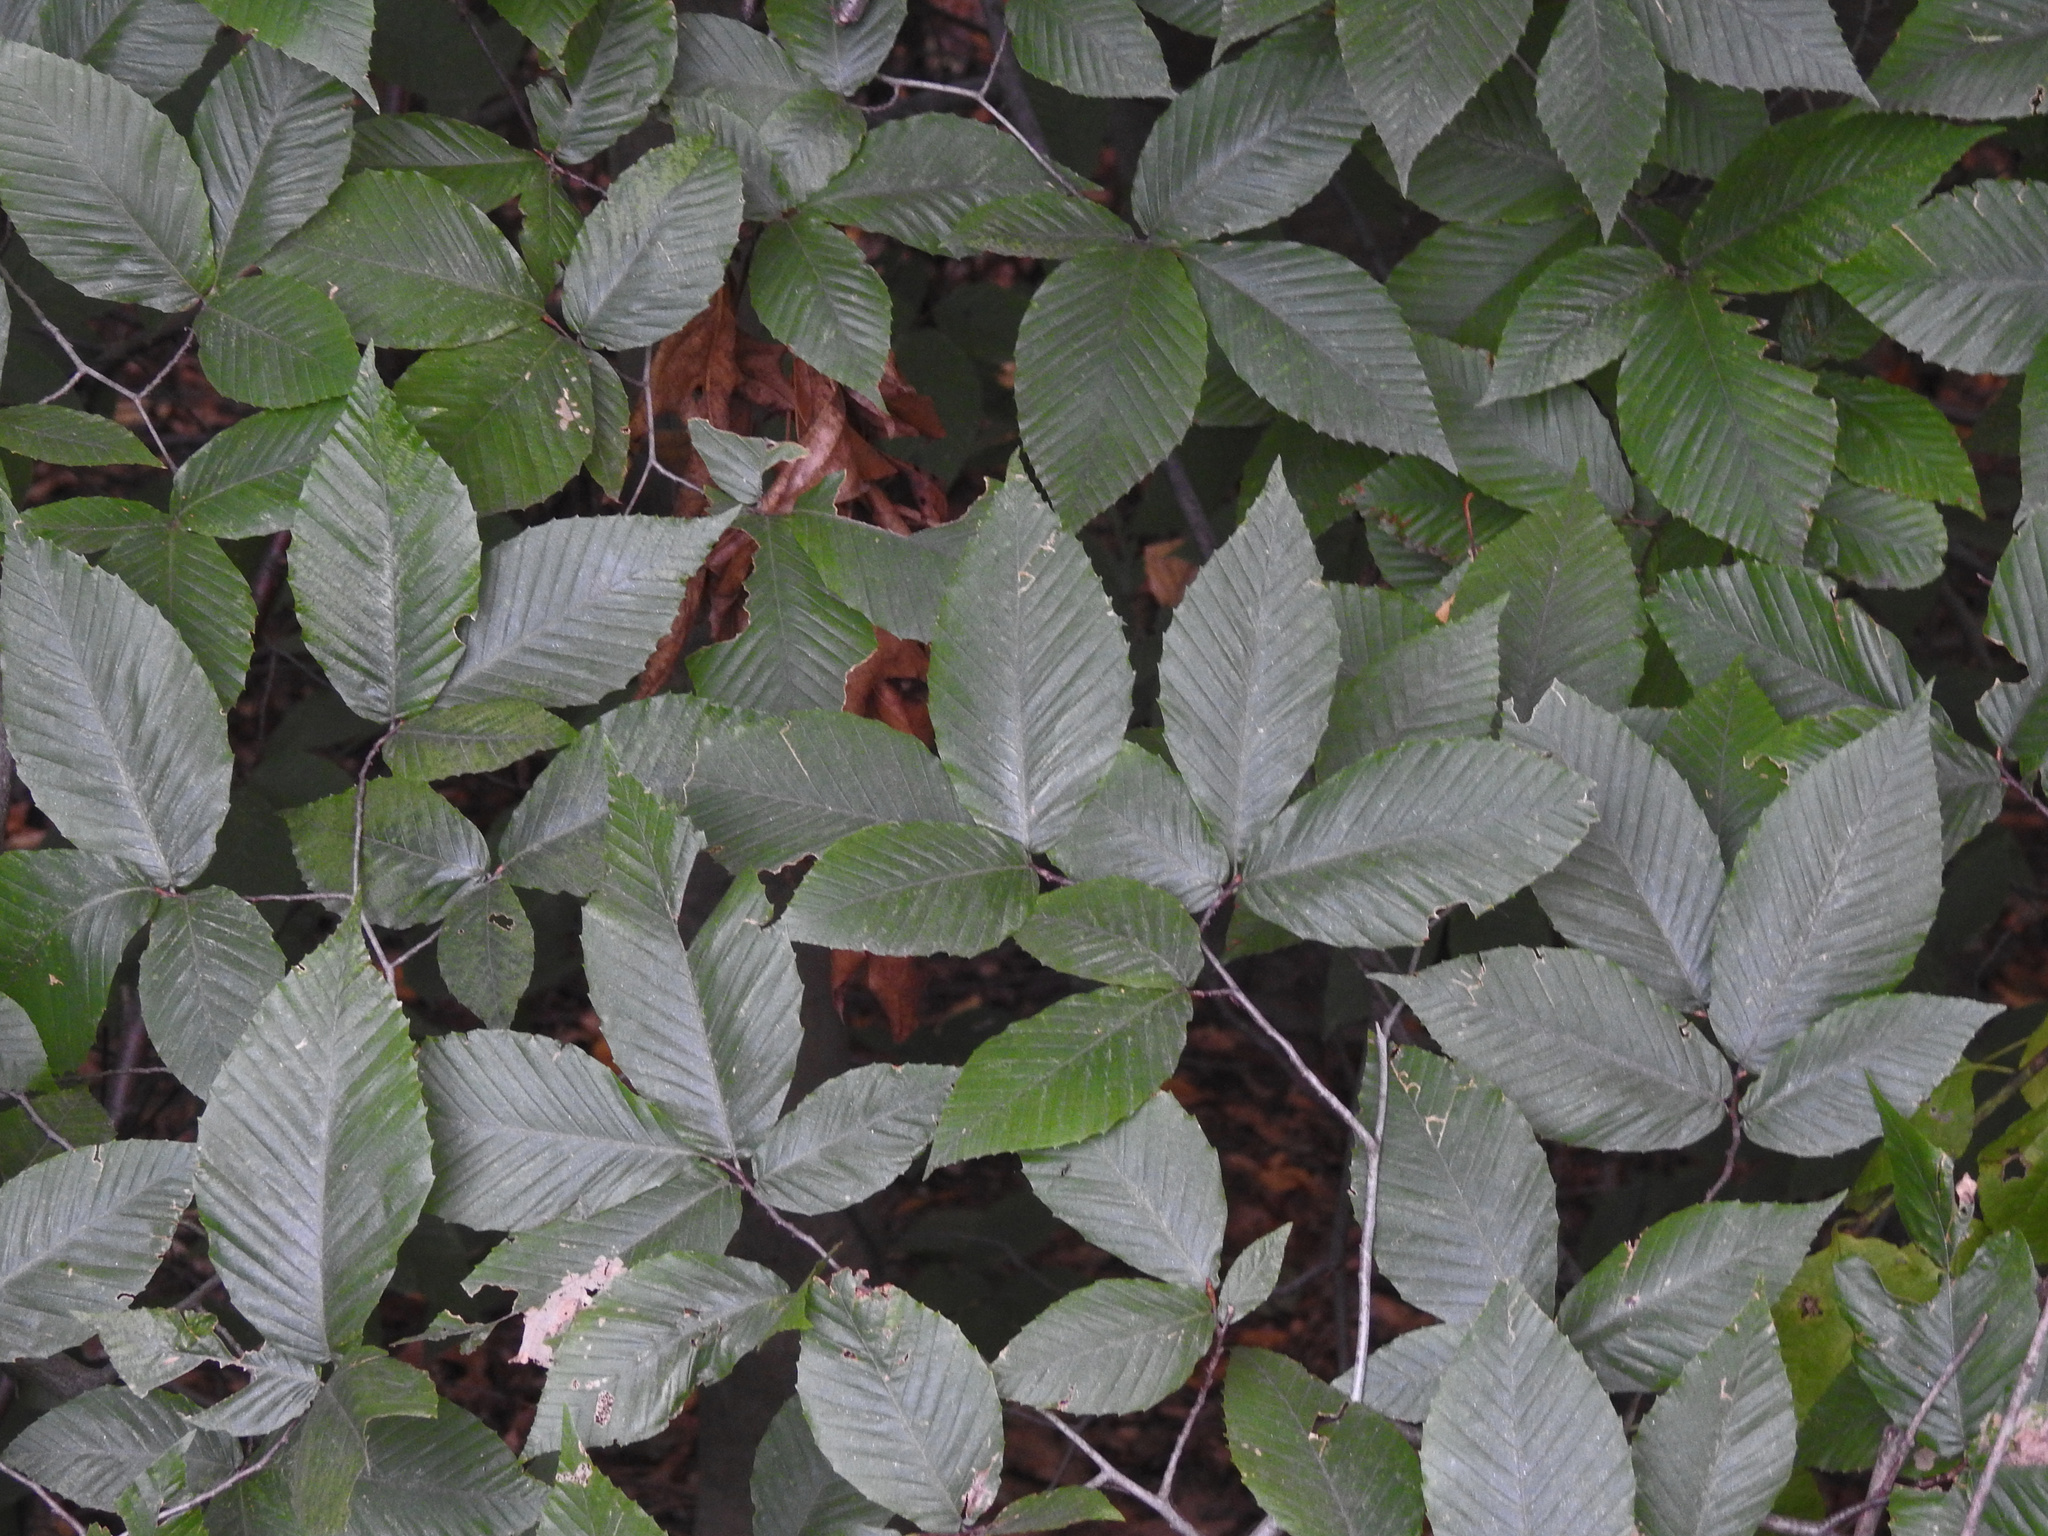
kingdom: Plantae
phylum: Tracheophyta
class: Magnoliopsida
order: Fagales
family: Fagaceae
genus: Fagus
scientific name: Fagus grandifolia
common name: American beech
